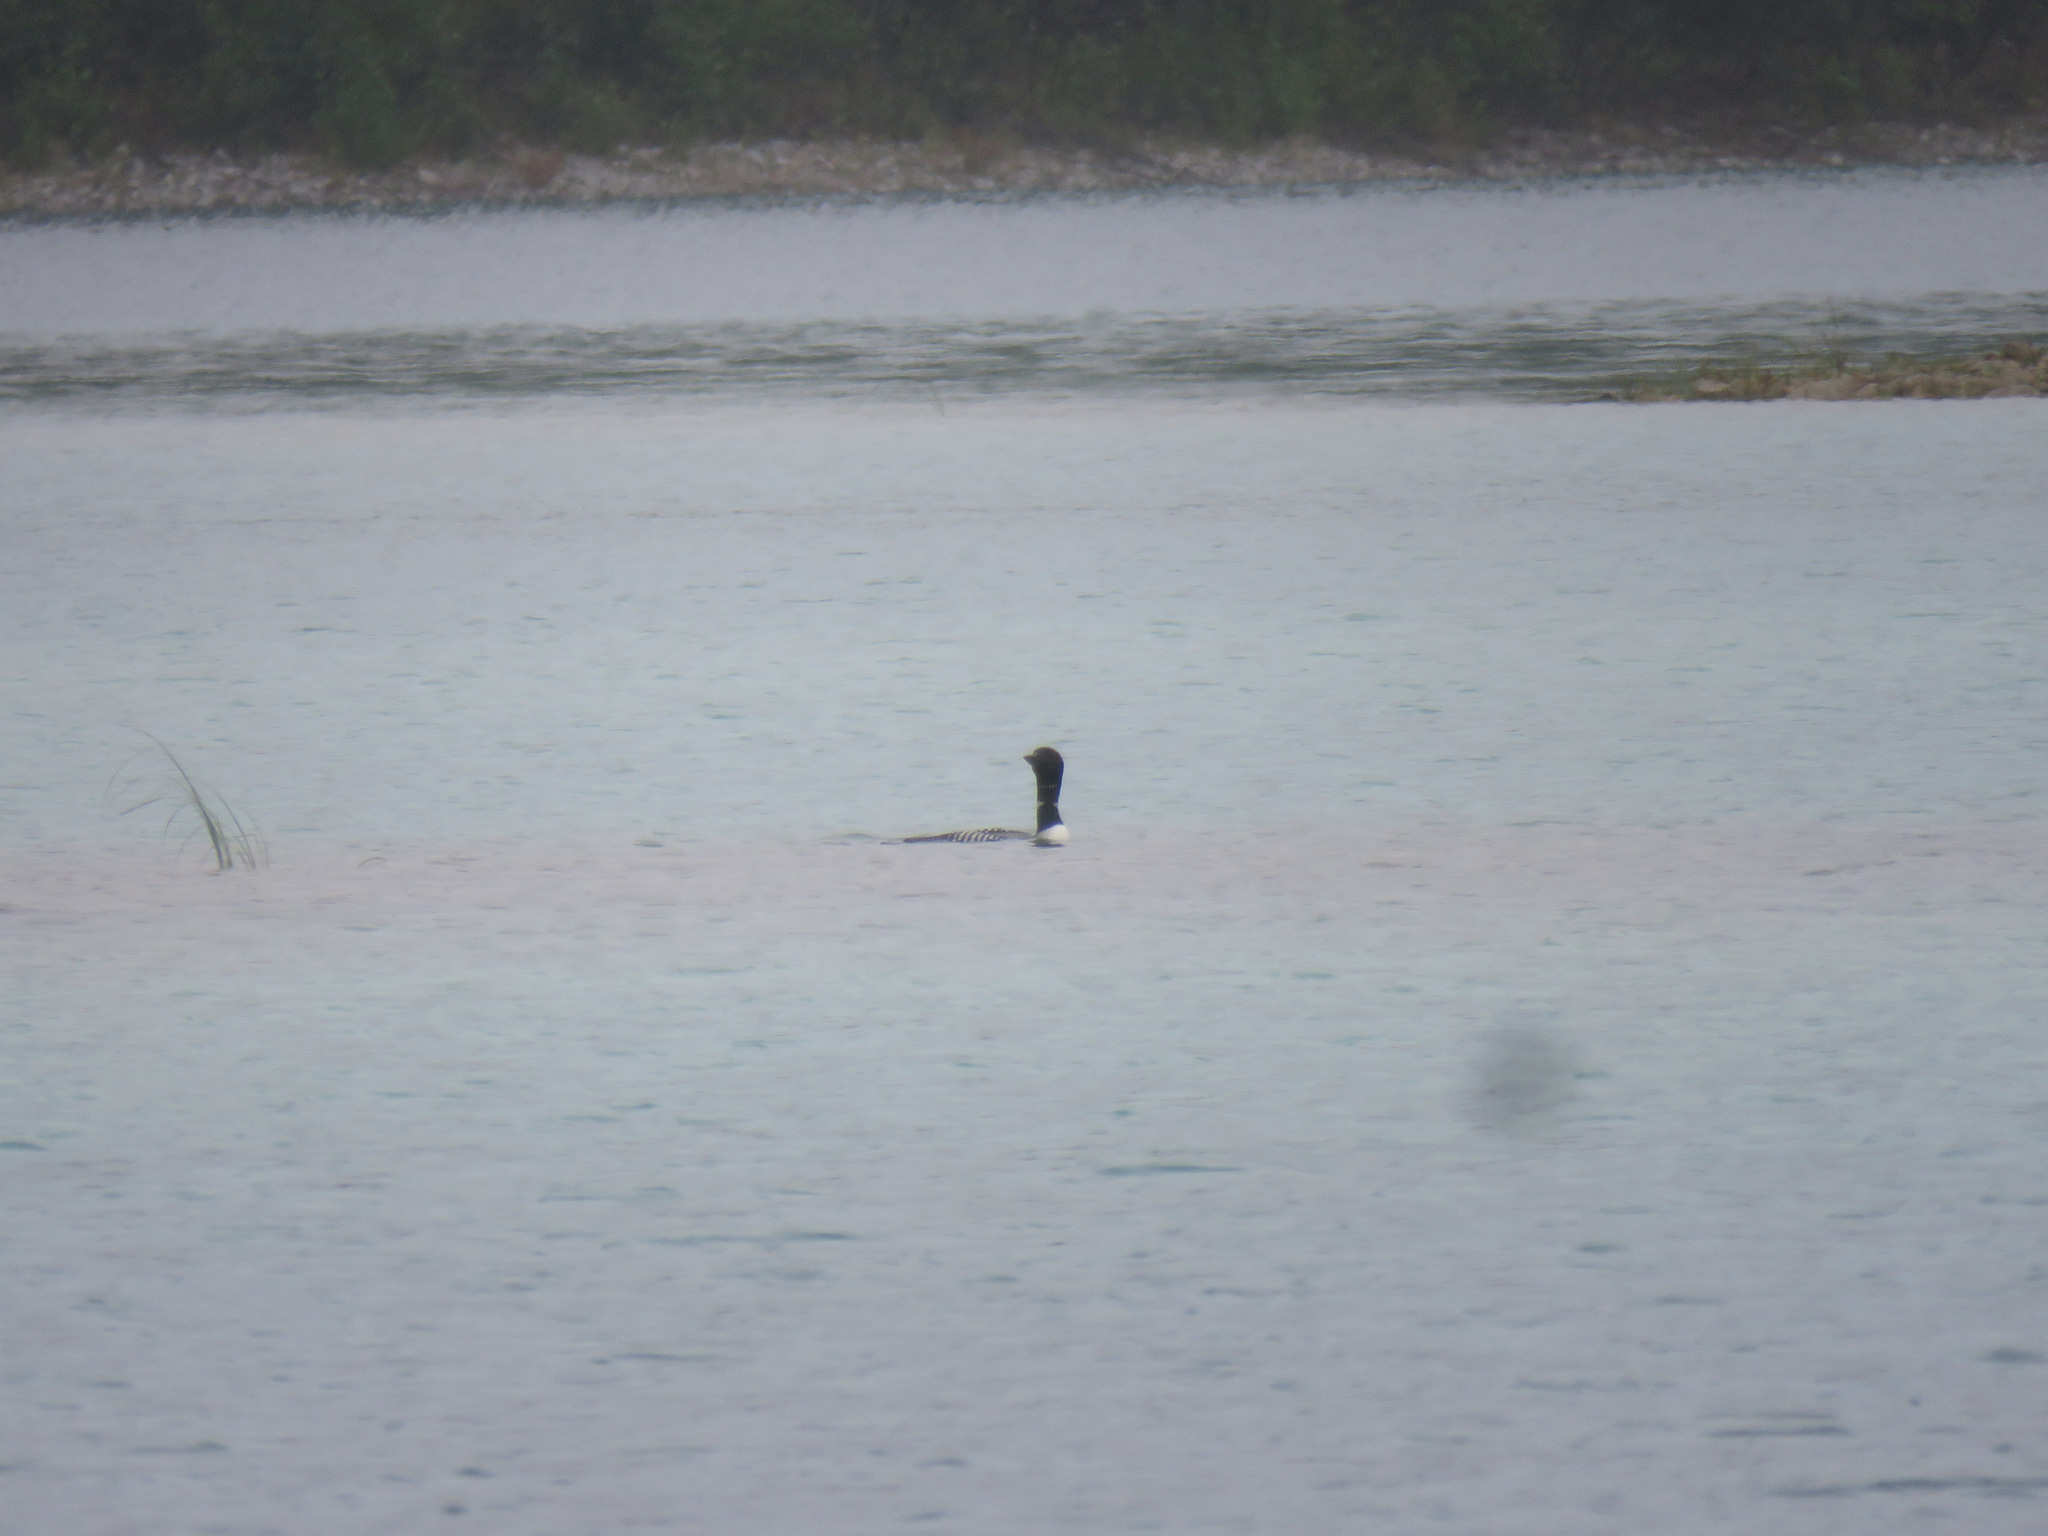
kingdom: Animalia
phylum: Chordata
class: Aves
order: Gaviiformes
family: Gaviidae
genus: Gavia
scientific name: Gavia immer
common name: Common loon
